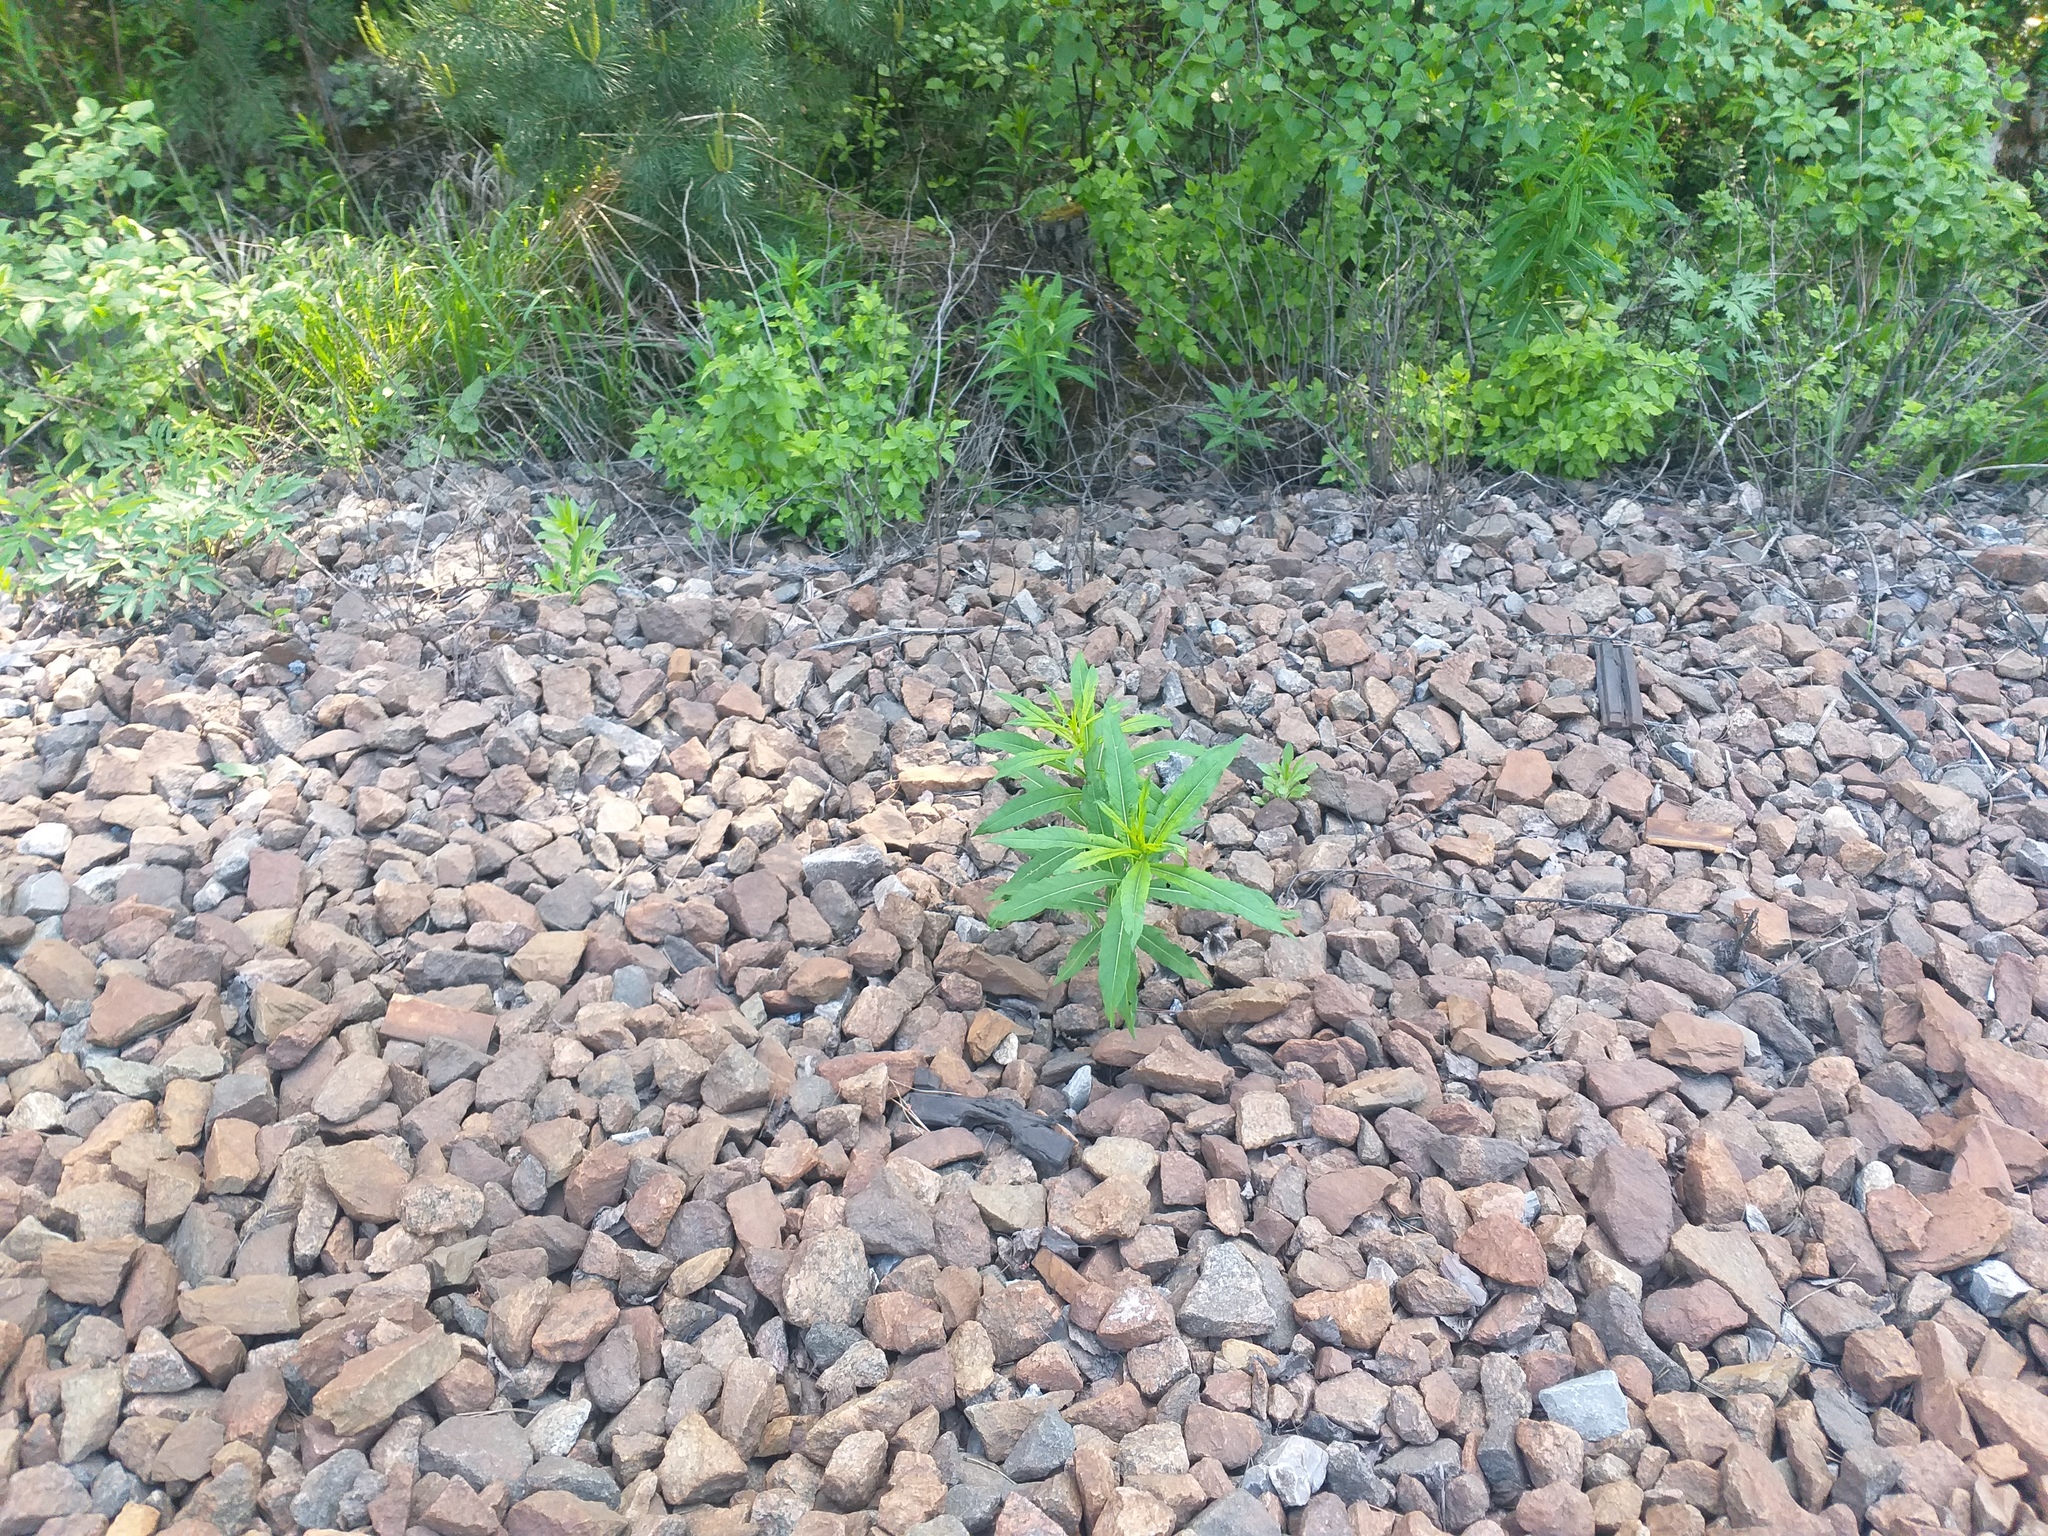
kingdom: Plantae
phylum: Tracheophyta
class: Magnoliopsida
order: Myrtales
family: Onagraceae
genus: Chamaenerion
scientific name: Chamaenerion angustifolium
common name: Fireweed
